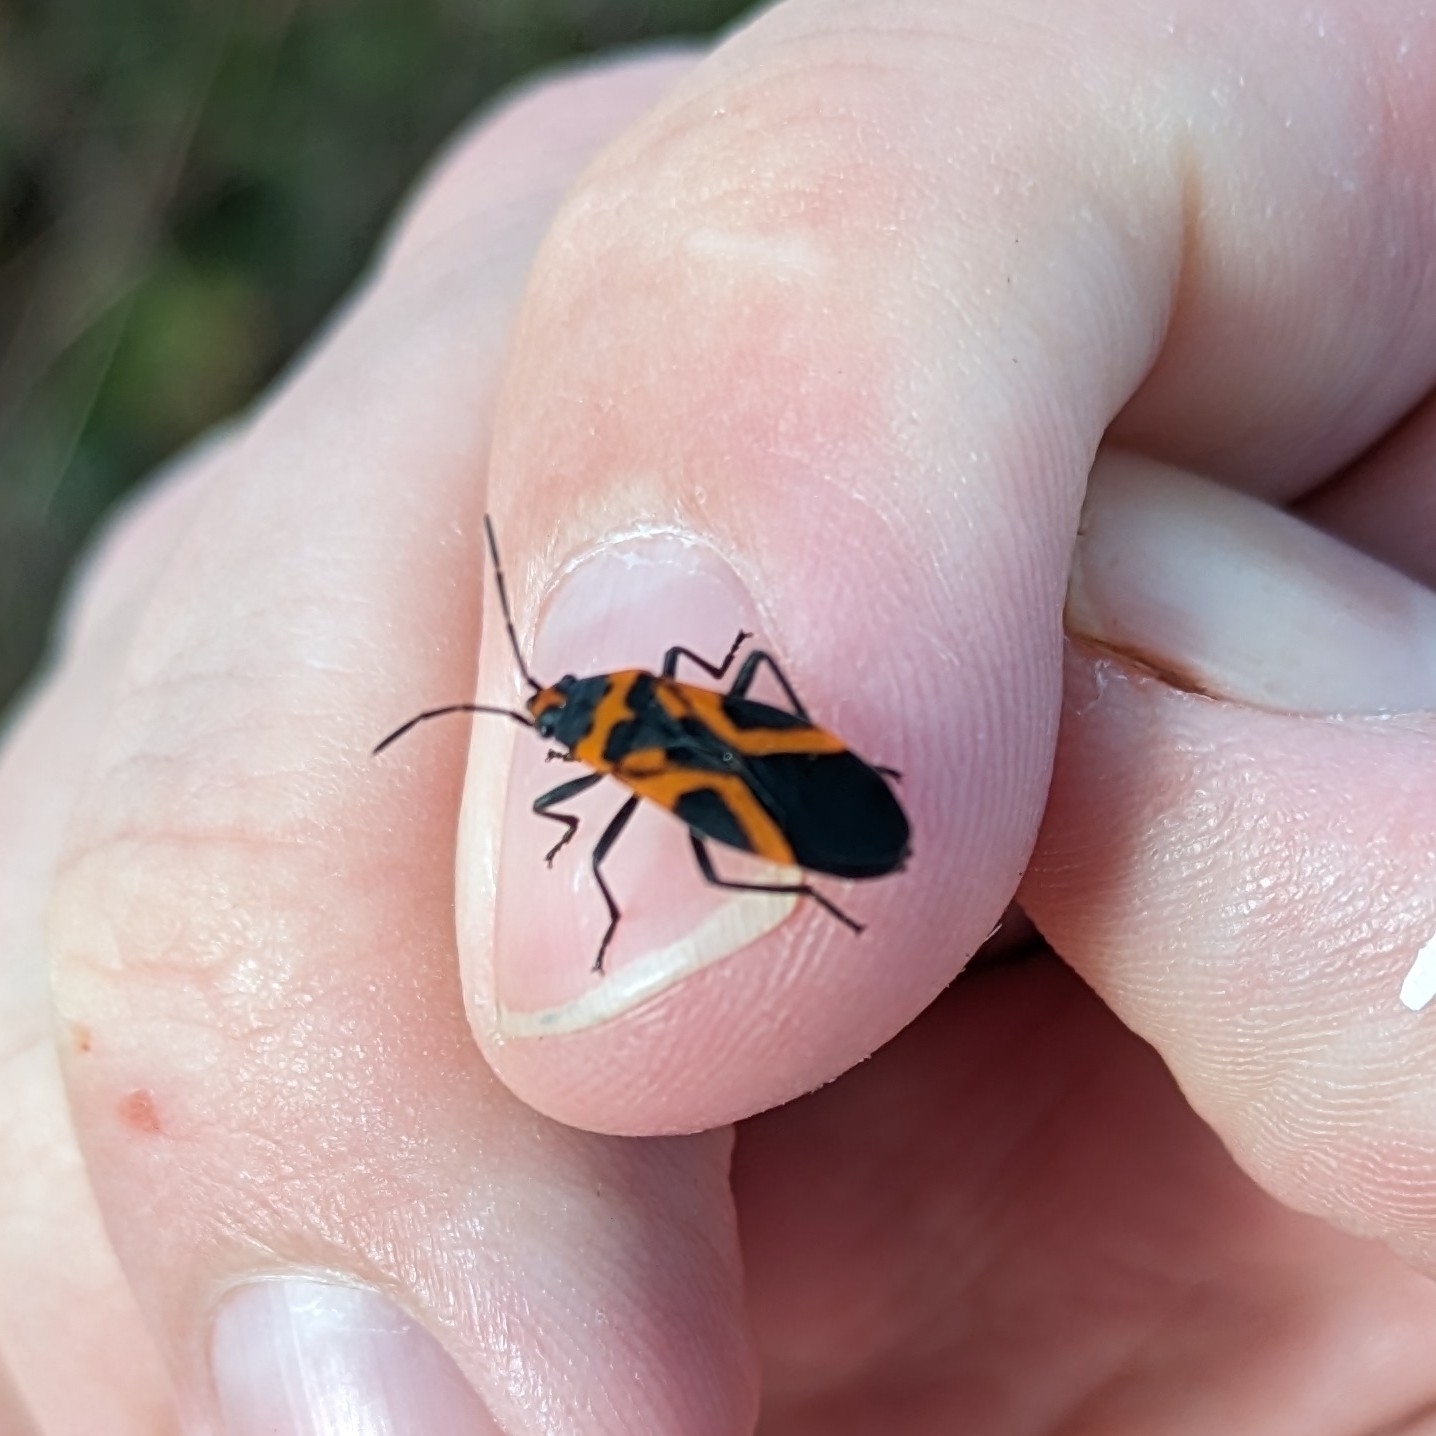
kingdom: Animalia
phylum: Arthropoda
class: Insecta
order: Hemiptera
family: Lygaeidae
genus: Lygaeus
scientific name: Lygaeus turcicus
